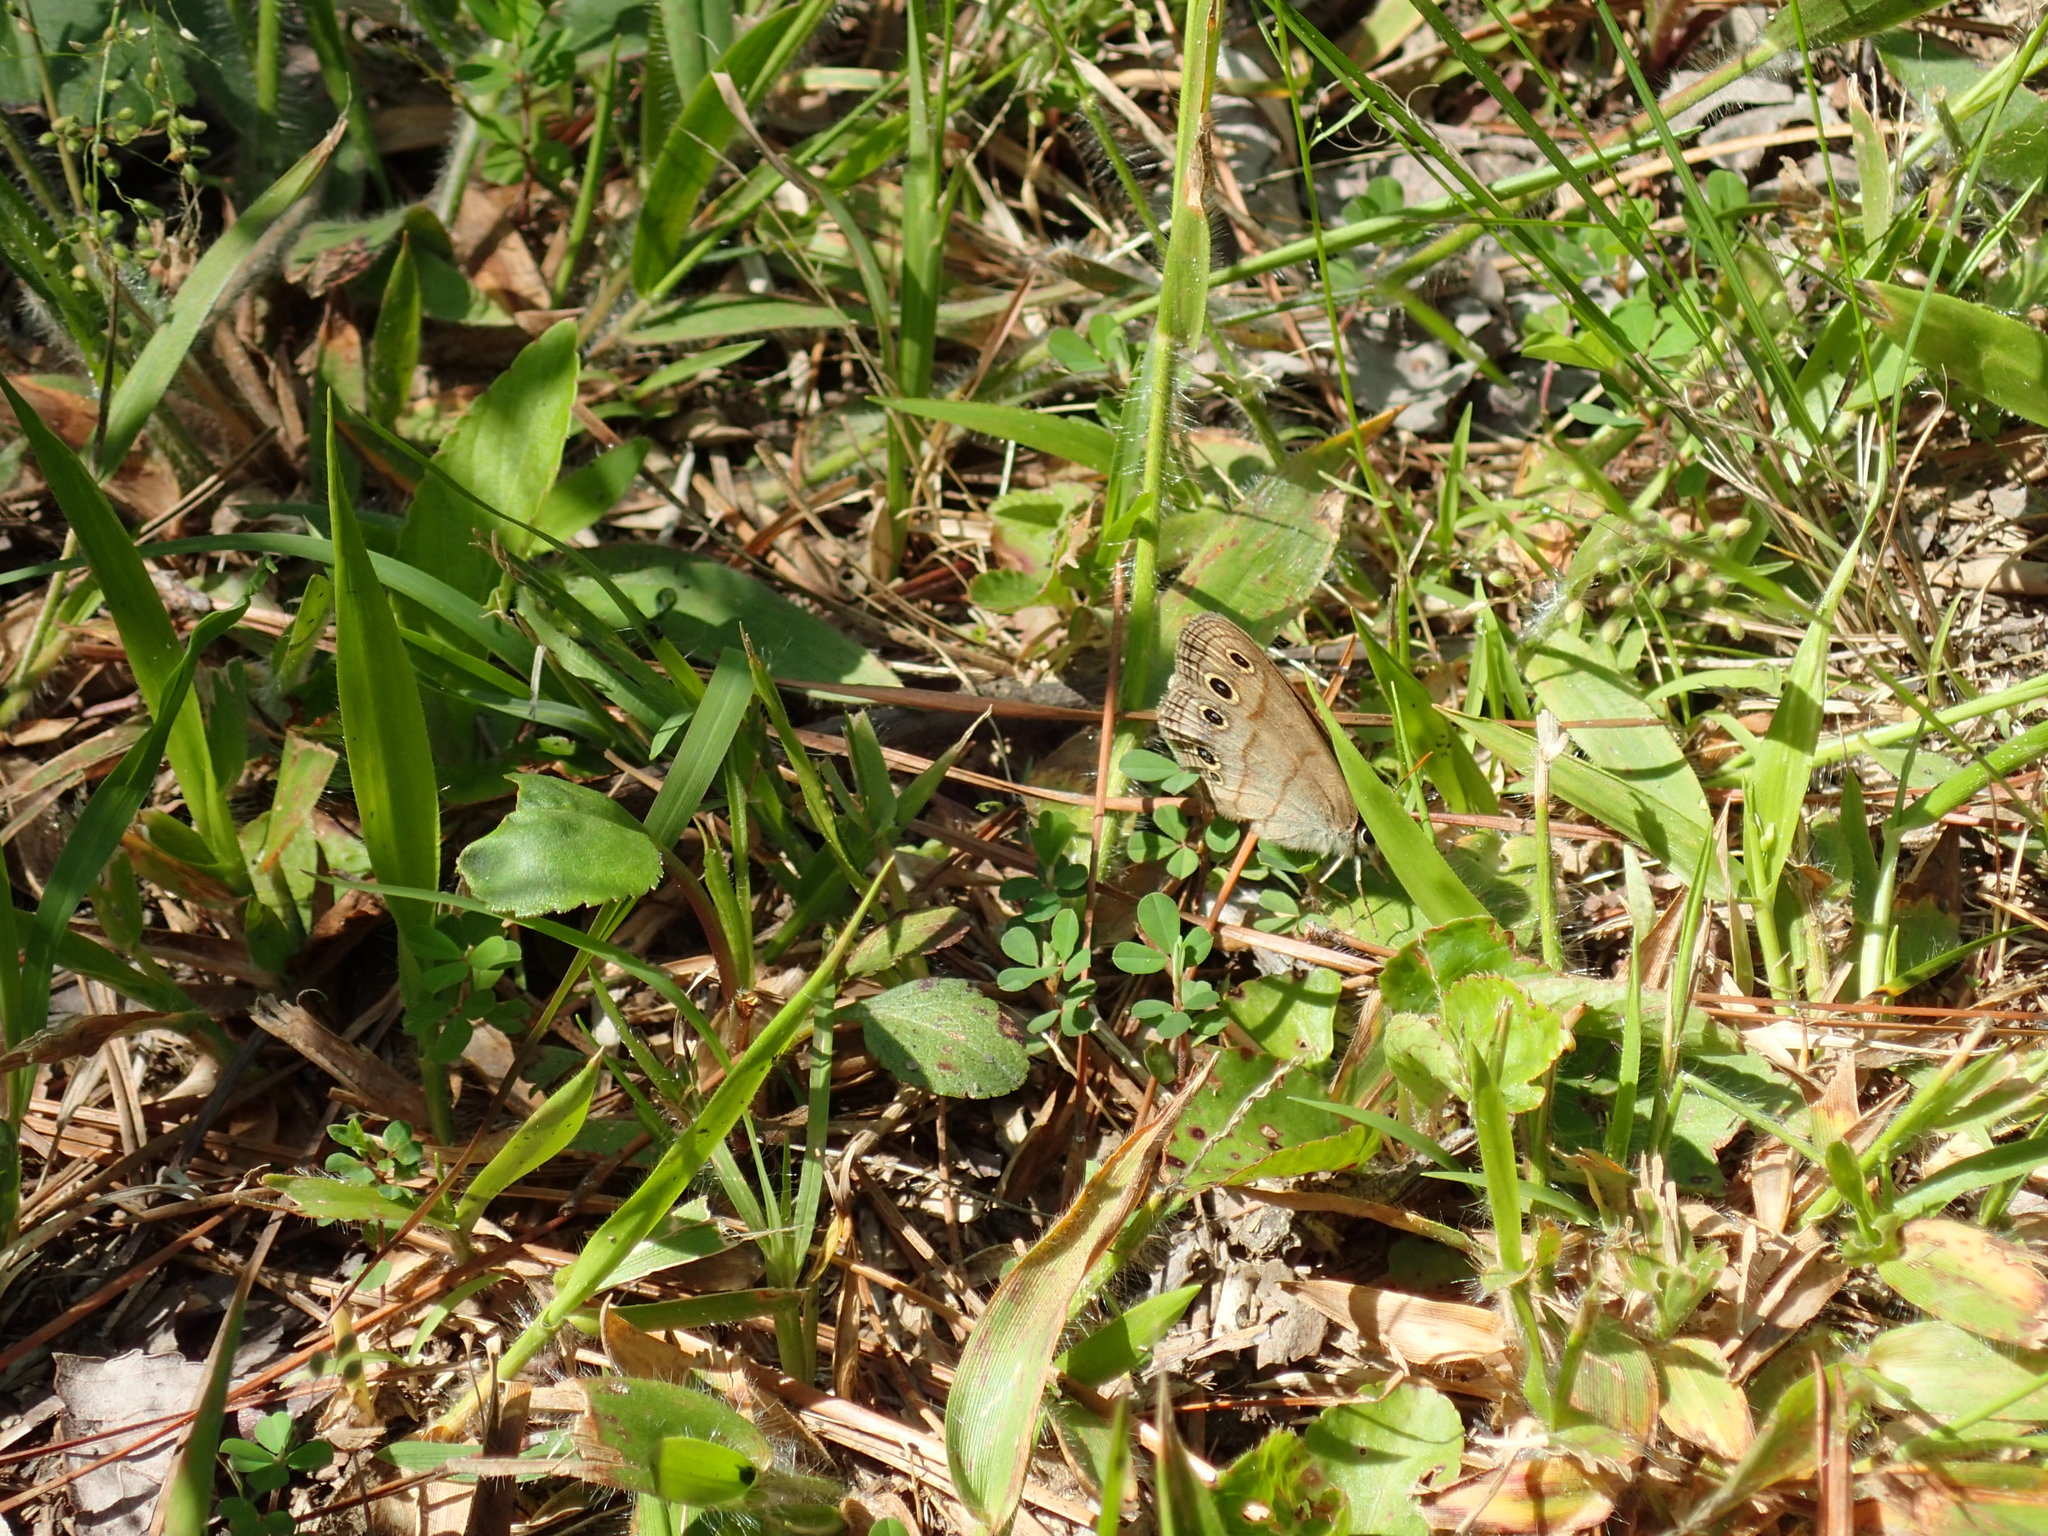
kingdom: Animalia
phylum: Arthropoda
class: Insecta
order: Lepidoptera
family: Nymphalidae
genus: Euptychia
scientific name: Euptychia cymela
